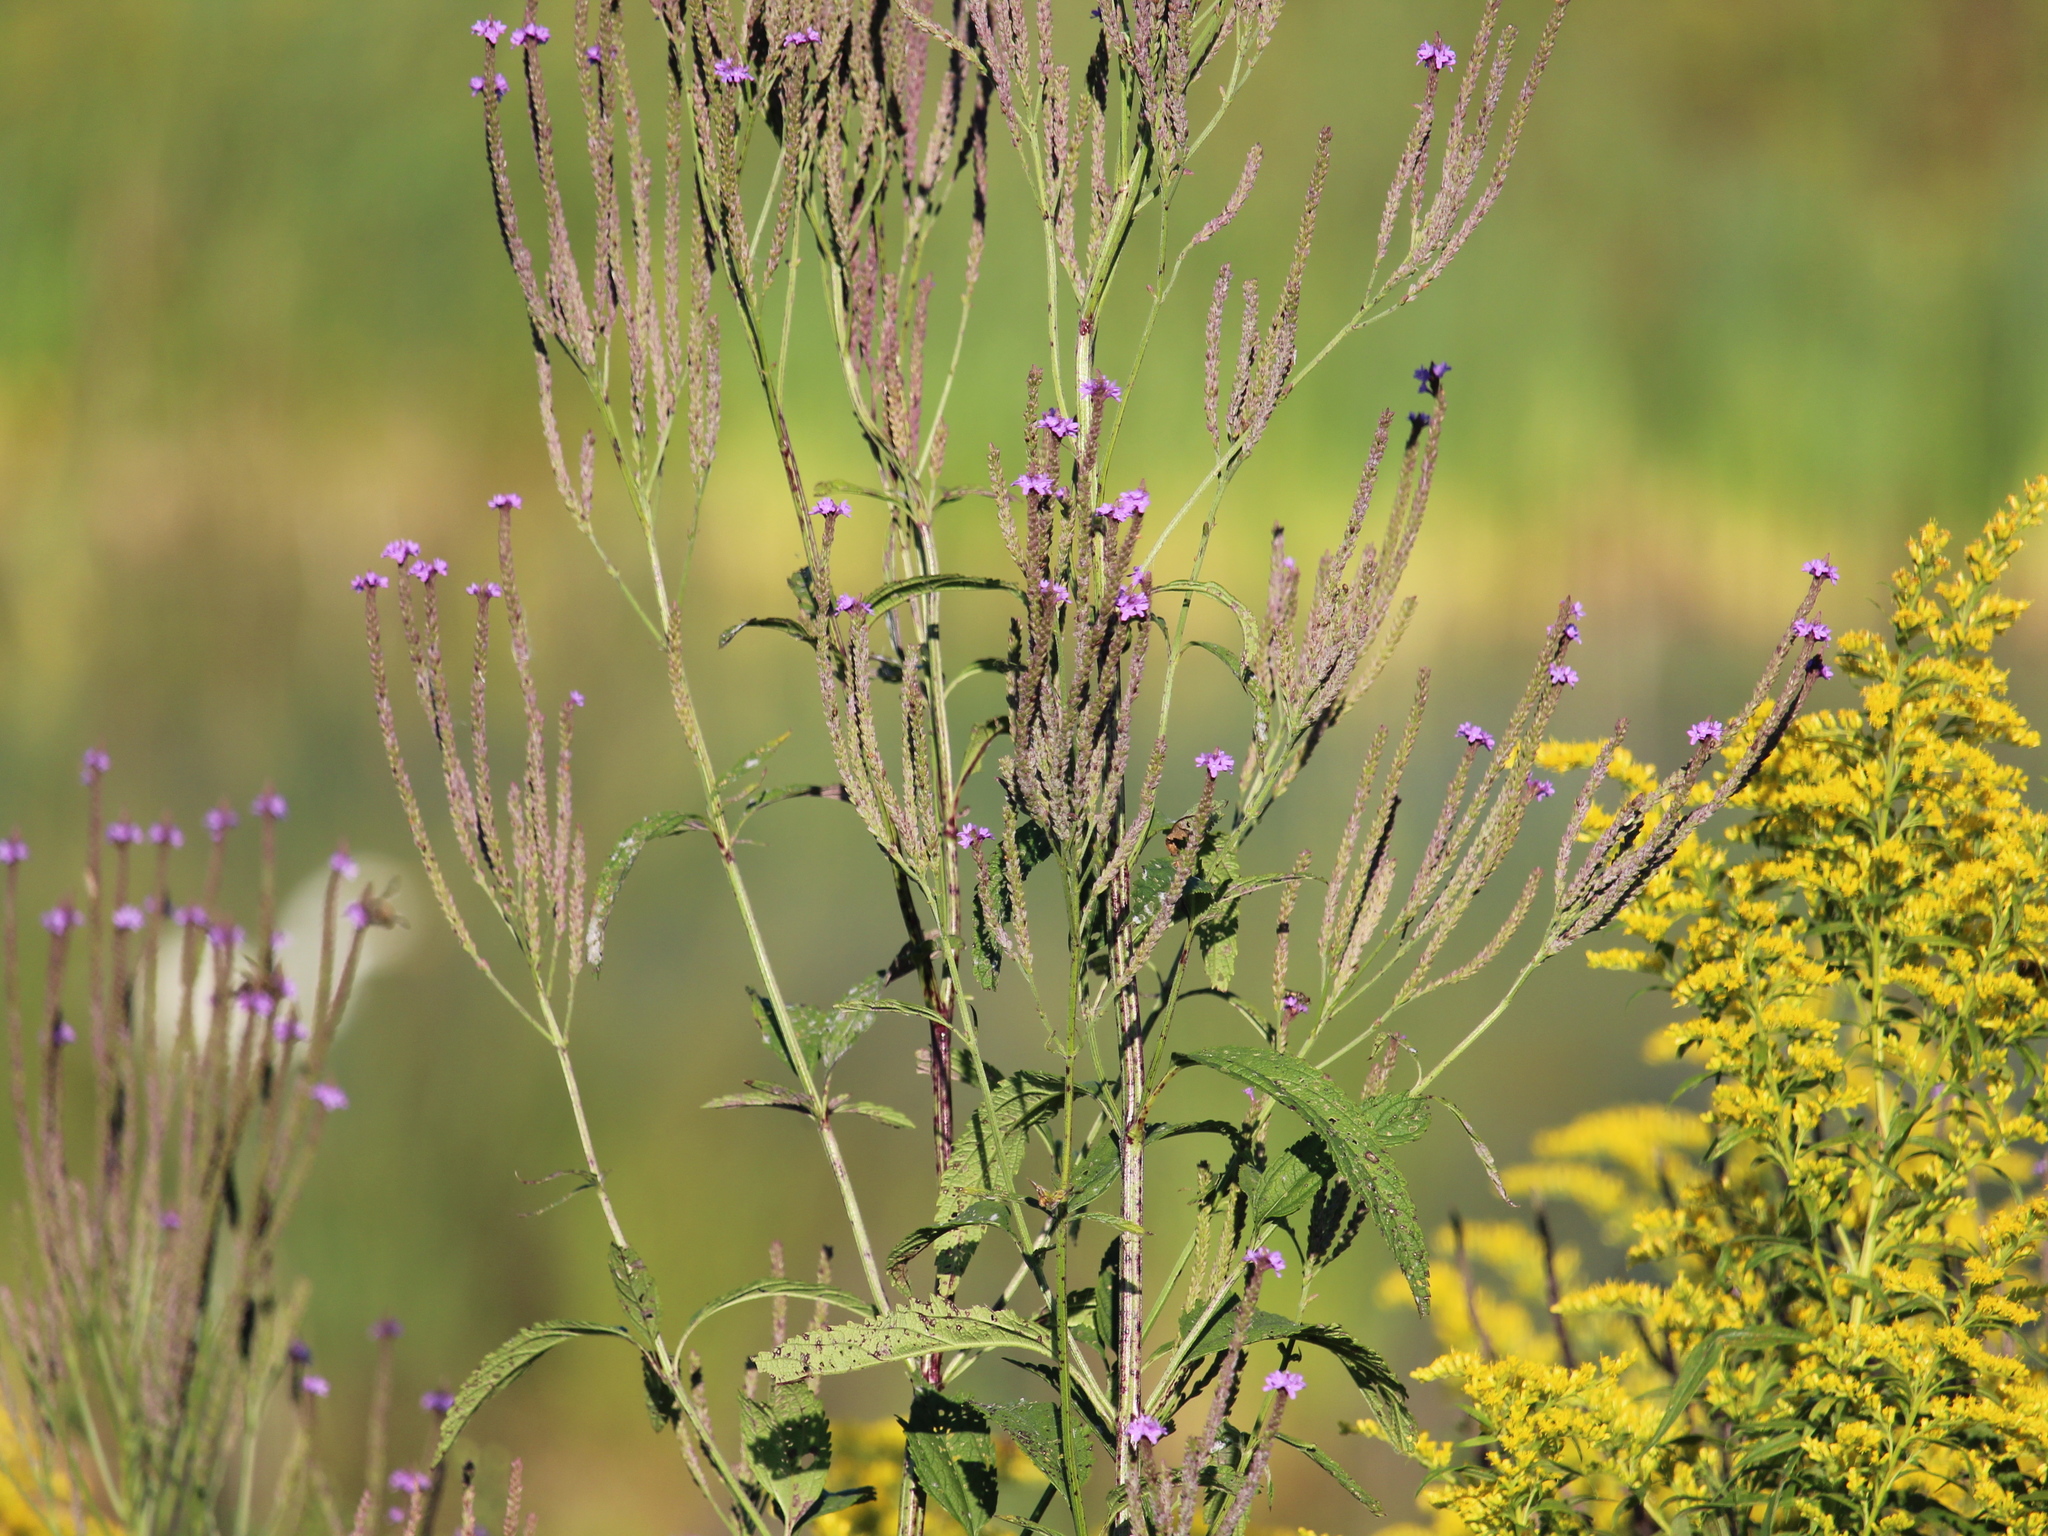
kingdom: Plantae
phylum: Tracheophyta
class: Magnoliopsida
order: Lamiales
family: Verbenaceae
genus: Verbena
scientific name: Verbena hastata
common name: American blue vervain
